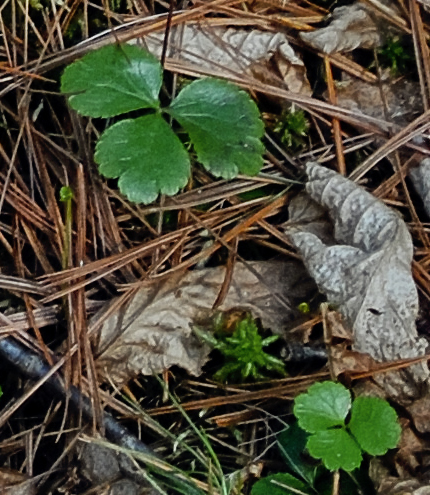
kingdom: Plantae
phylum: Tracheophyta
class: Magnoliopsida
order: Ranunculales
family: Ranunculaceae
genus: Coptis
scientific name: Coptis trifolia
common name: Canker-root
